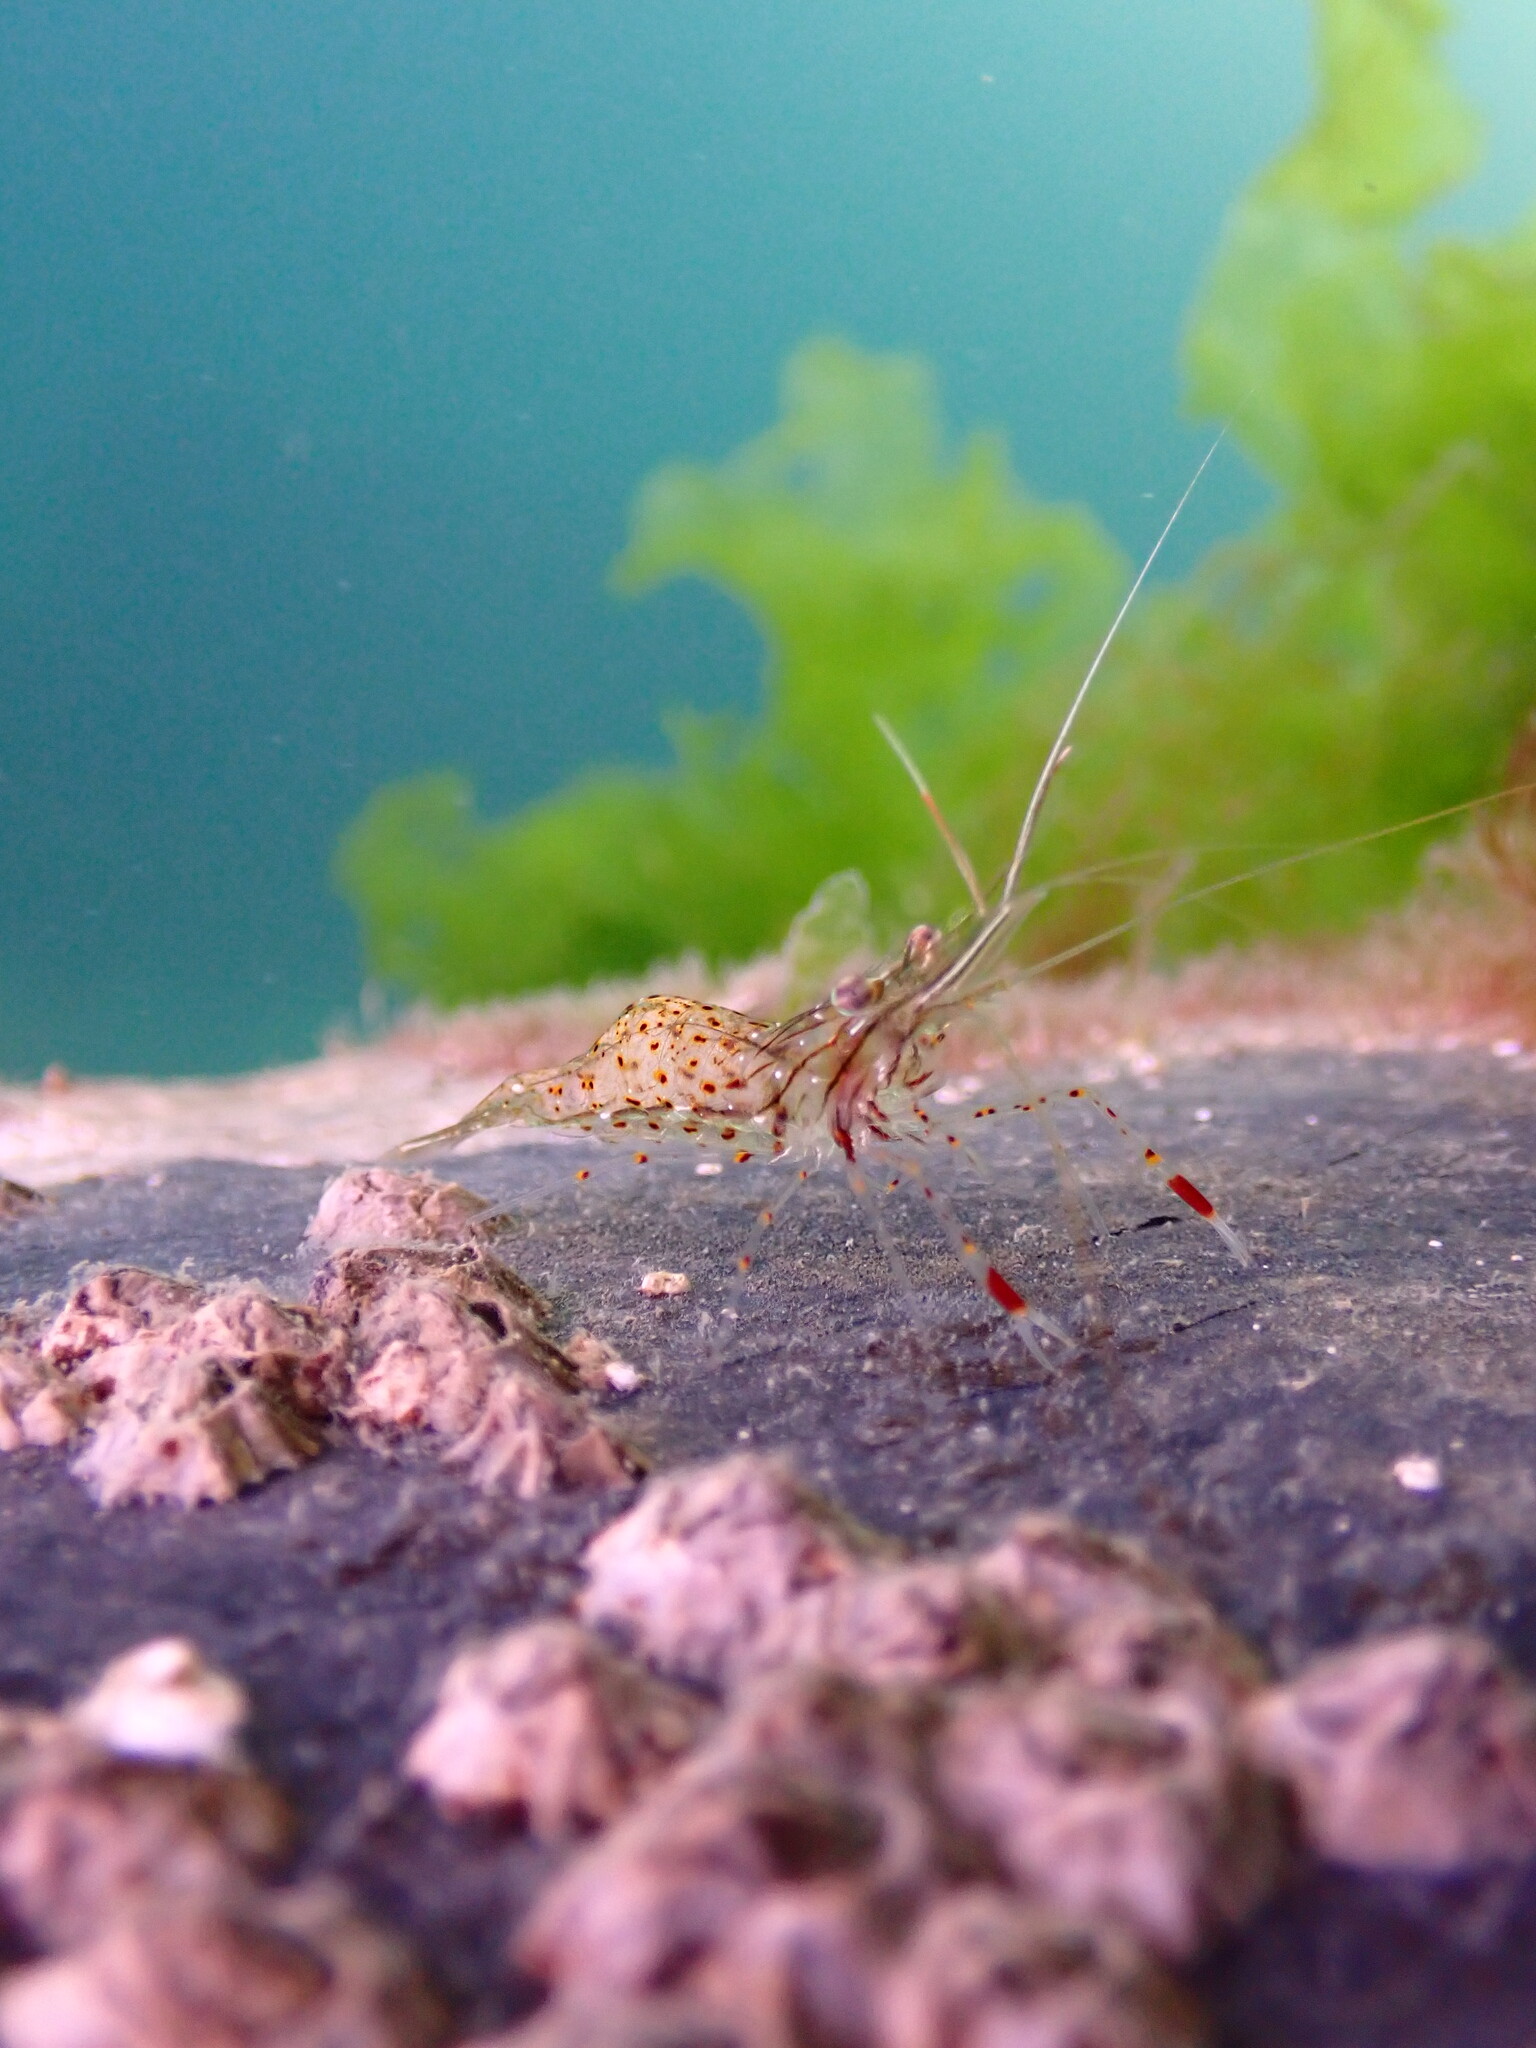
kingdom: Animalia
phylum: Arthropoda
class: Malacostraca
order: Decapoda
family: Palaemonidae
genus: Palaemon
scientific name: Palaemon serenus
